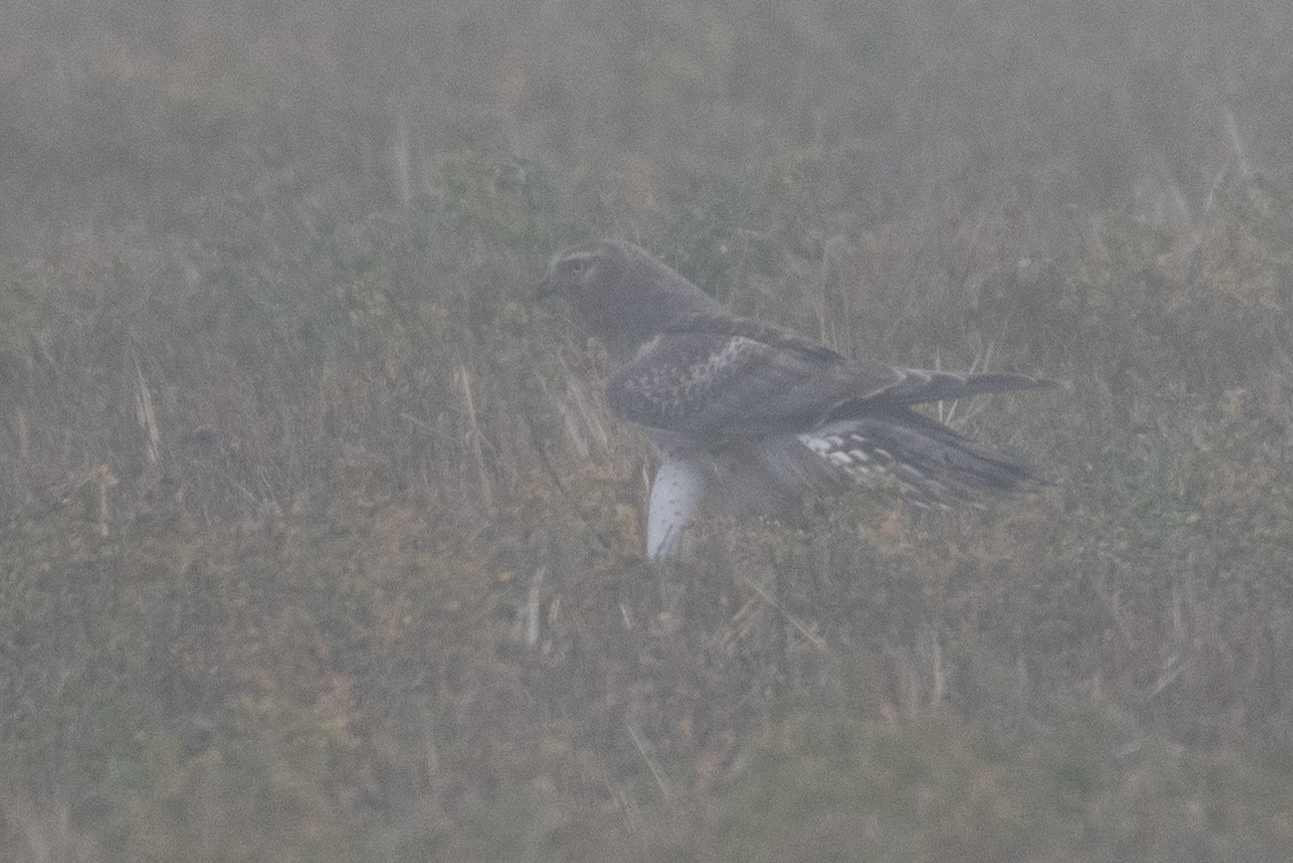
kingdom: Animalia
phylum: Chordata
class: Aves
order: Accipitriformes
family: Accipitridae
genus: Circus
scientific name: Circus cyaneus
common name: Hen harrier
